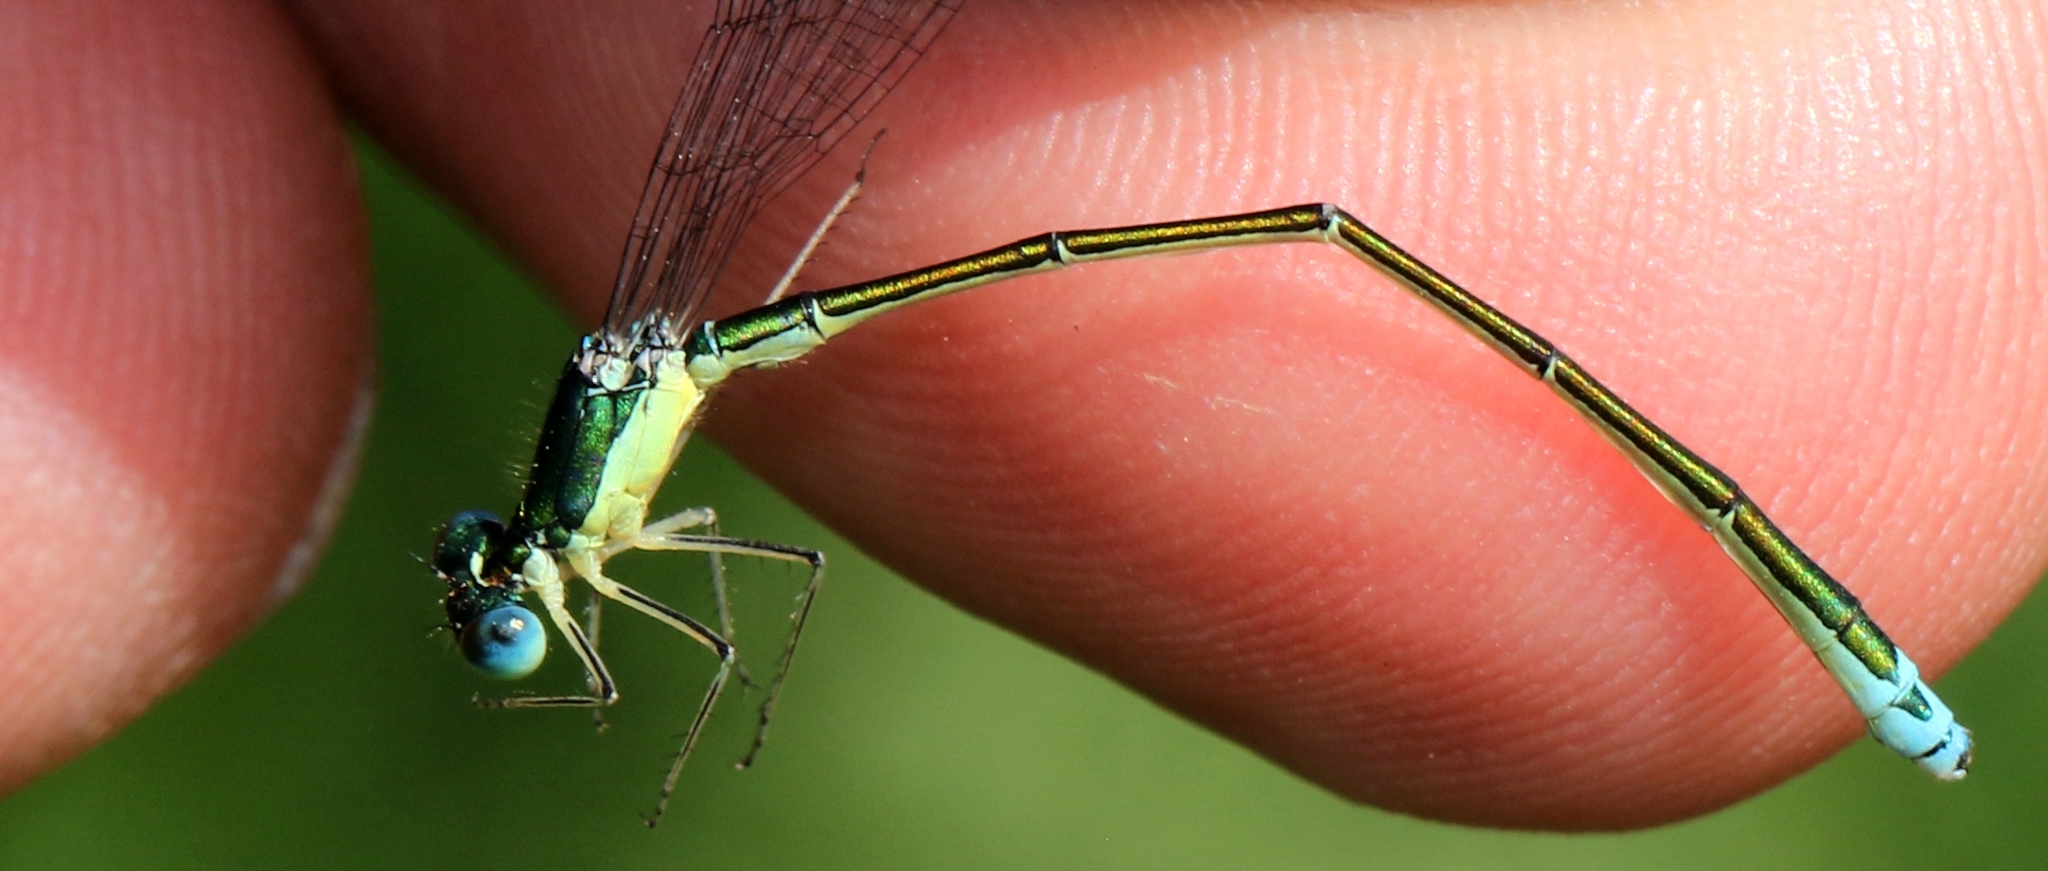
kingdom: Animalia
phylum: Arthropoda
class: Insecta
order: Odonata
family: Coenagrionidae
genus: Nehalennia
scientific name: Nehalennia irene
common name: Sedge sprite
